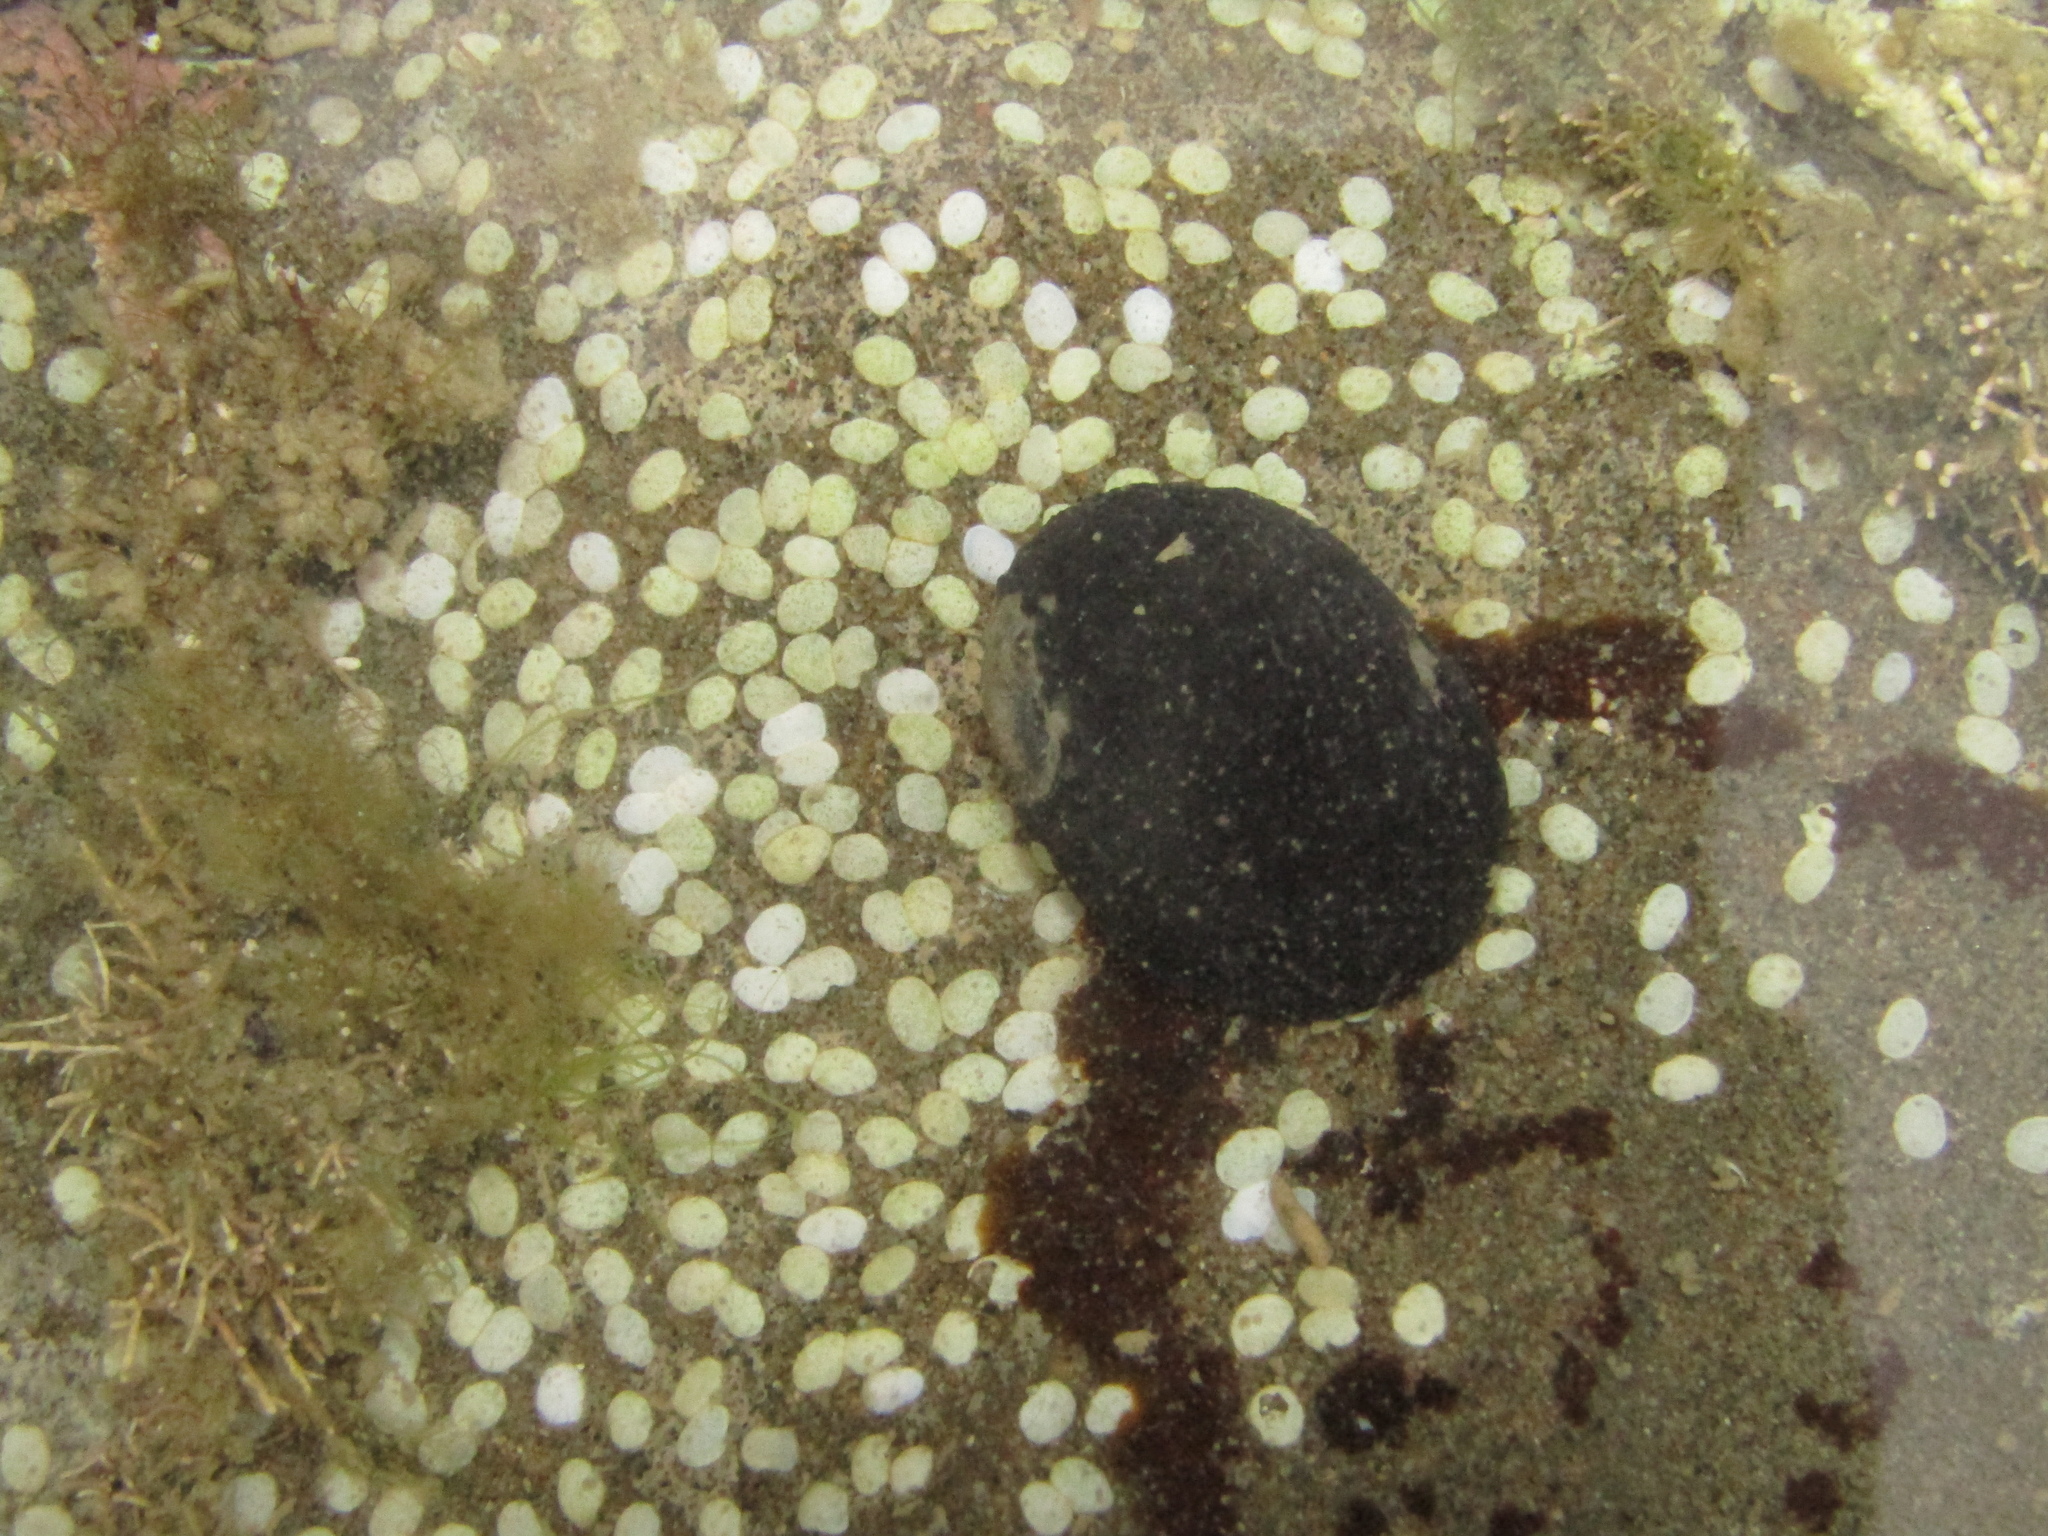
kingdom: Animalia
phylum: Mollusca
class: Gastropoda
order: Cycloneritida
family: Neritidae
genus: Nerita
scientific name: Nerita melanotragus
